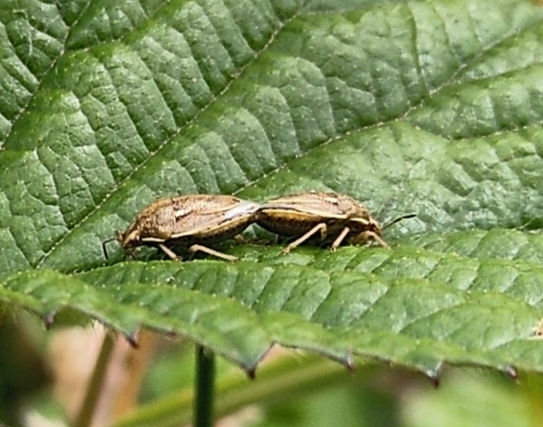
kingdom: Animalia
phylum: Arthropoda
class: Insecta
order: Hemiptera
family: Pentatomidae
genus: Neottiglossa
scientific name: Neottiglossa leporina
